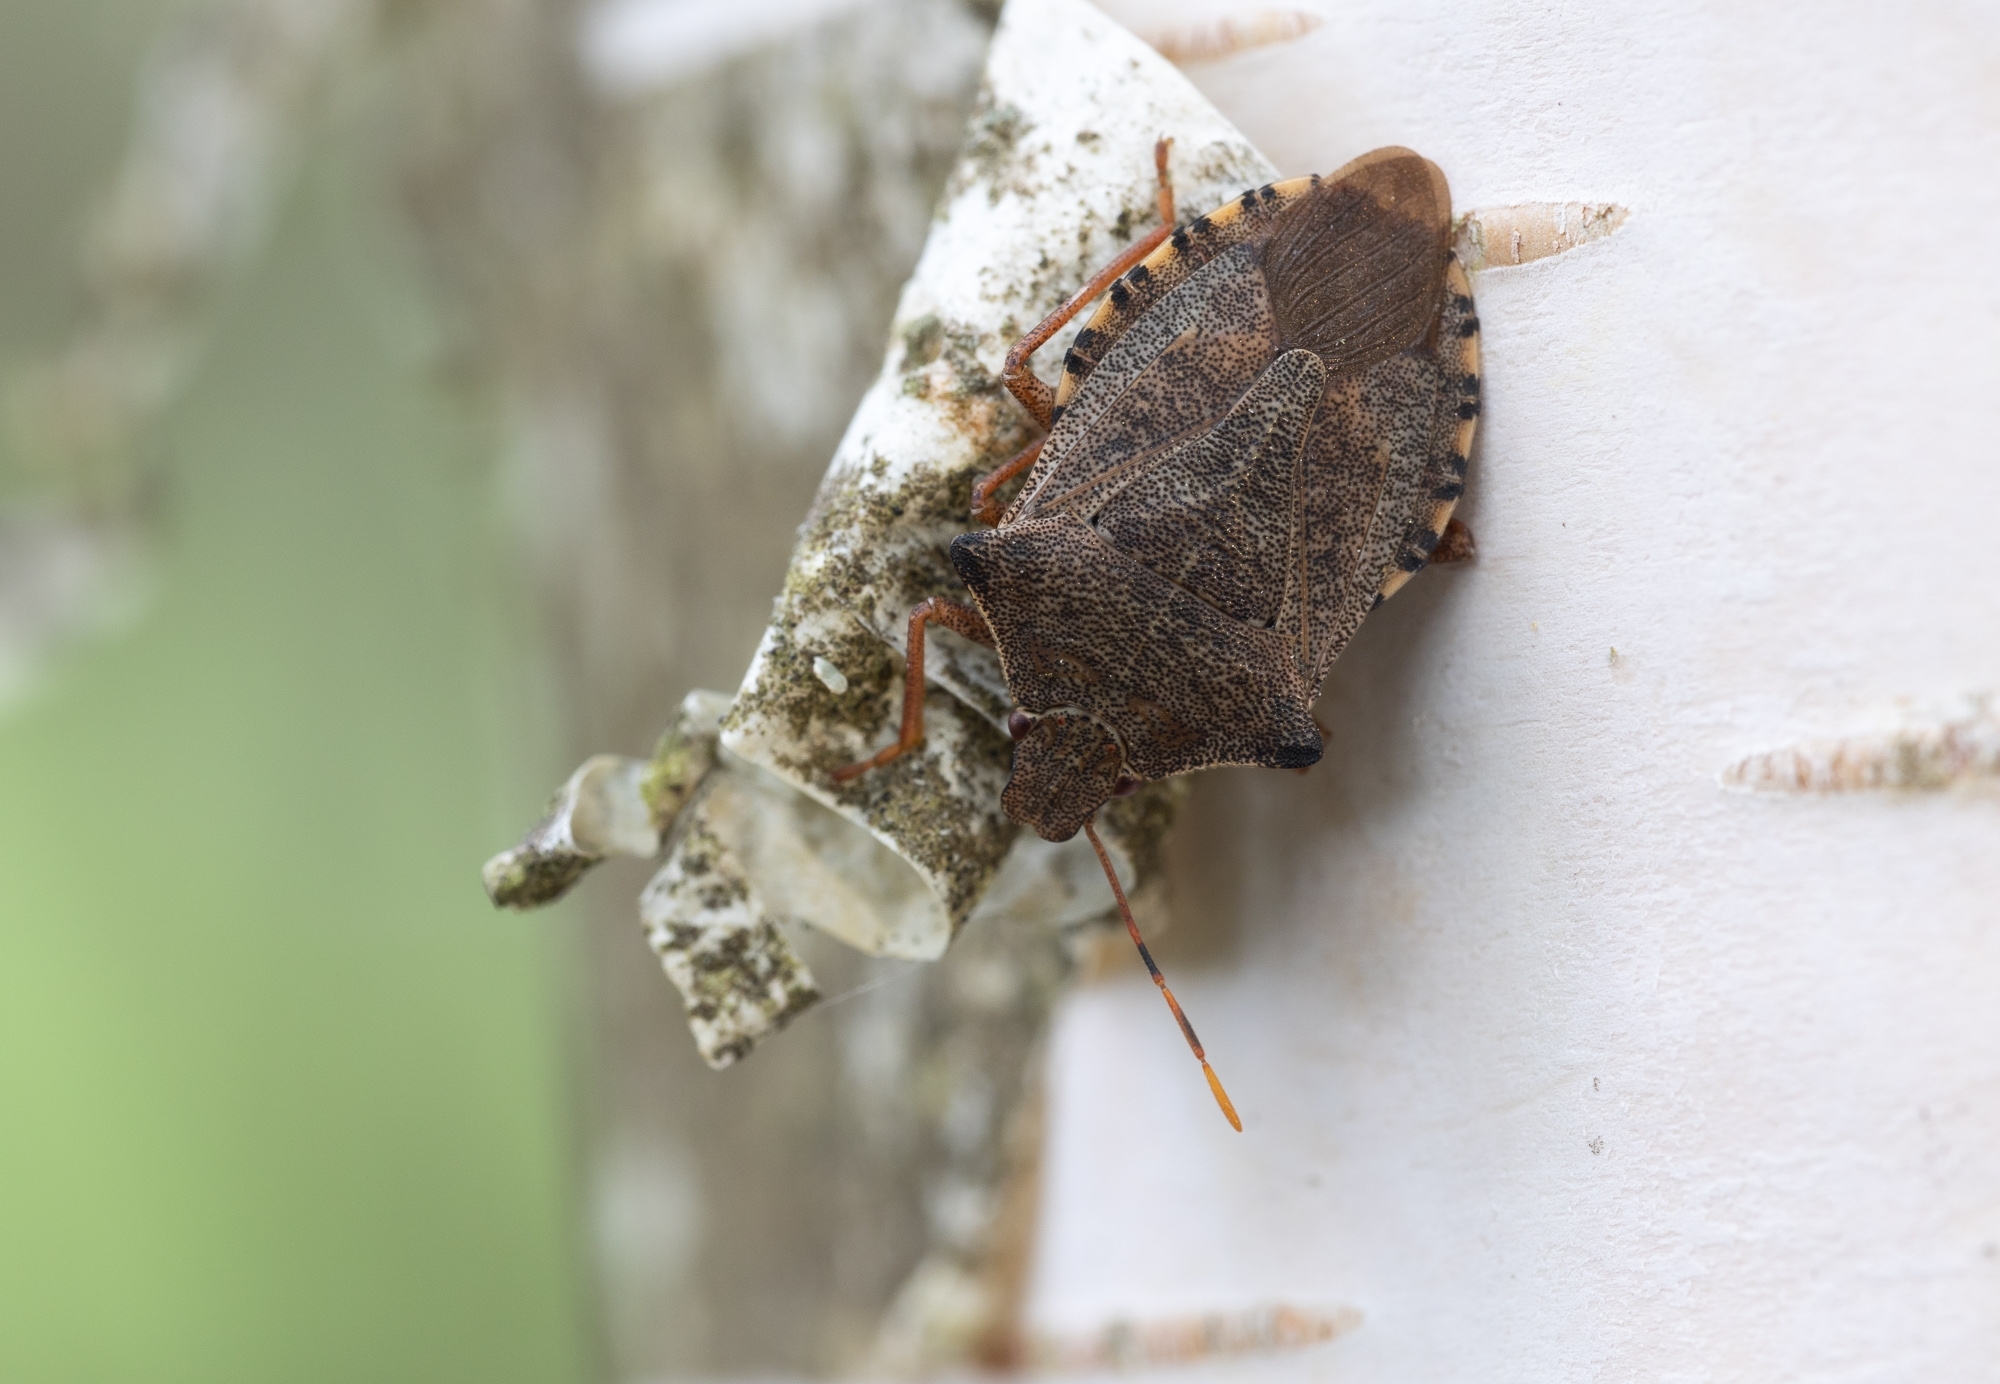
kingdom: Animalia
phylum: Arthropoda
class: Insecta
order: Hemiptera
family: Pentatomidae
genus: Arma
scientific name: Arma custos
